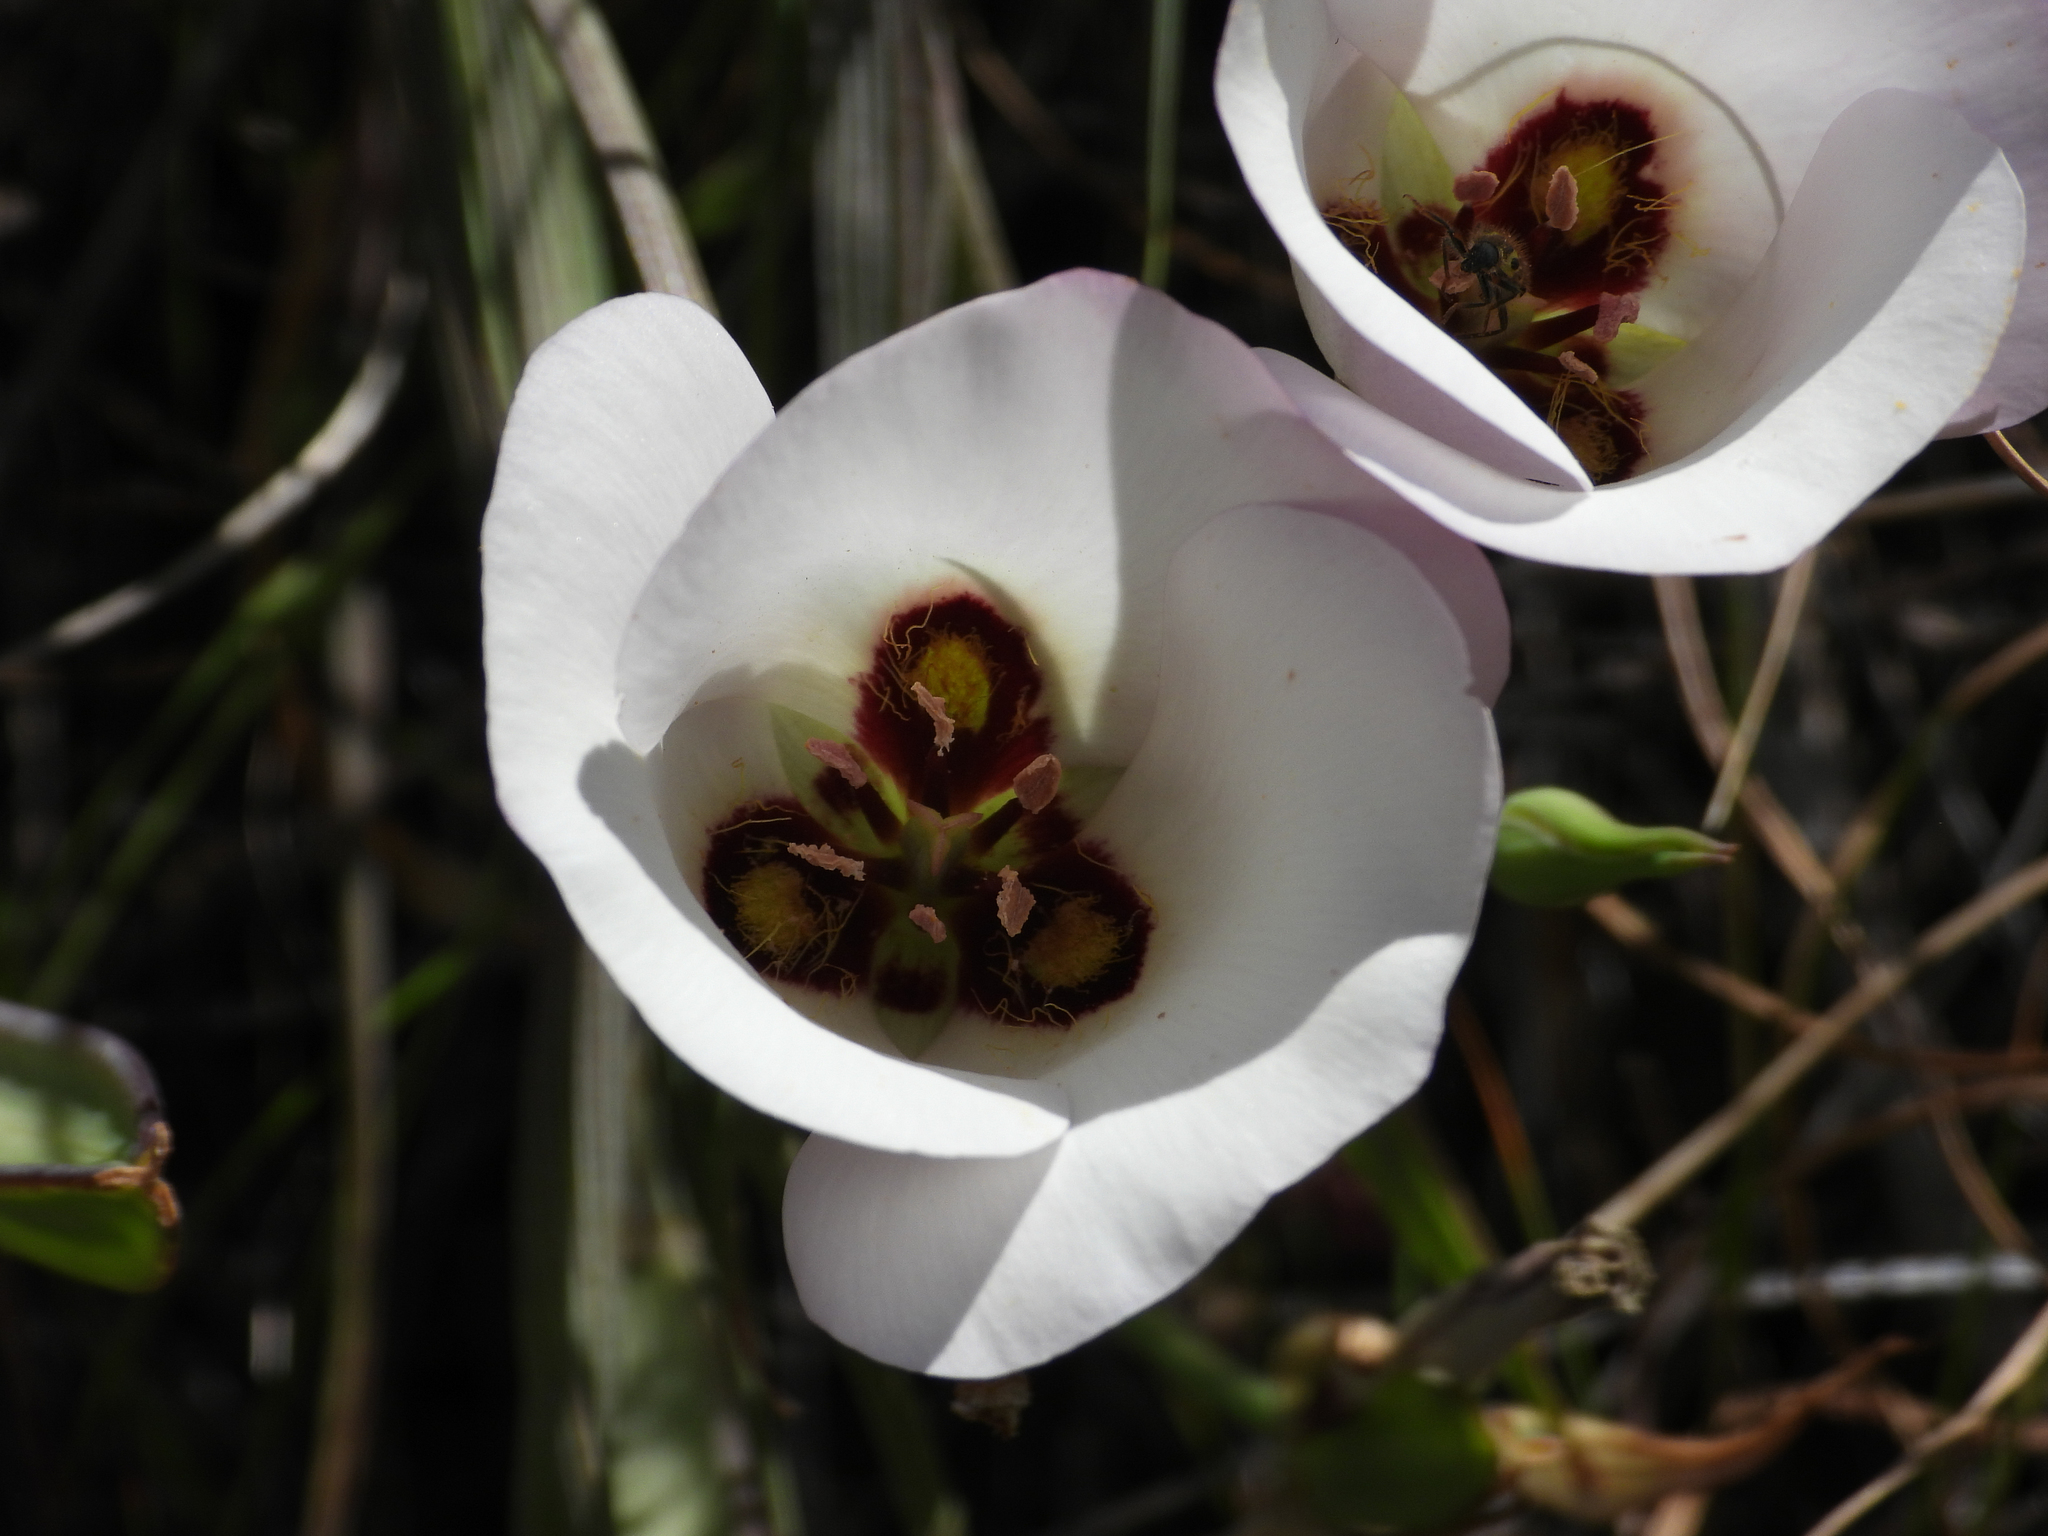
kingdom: Plantae
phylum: Tracheophyta
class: Liliopsida
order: Liliales
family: Liliaceae
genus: Calochortus
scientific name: Calochortus catalinae
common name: Catalina mariposa-lily
